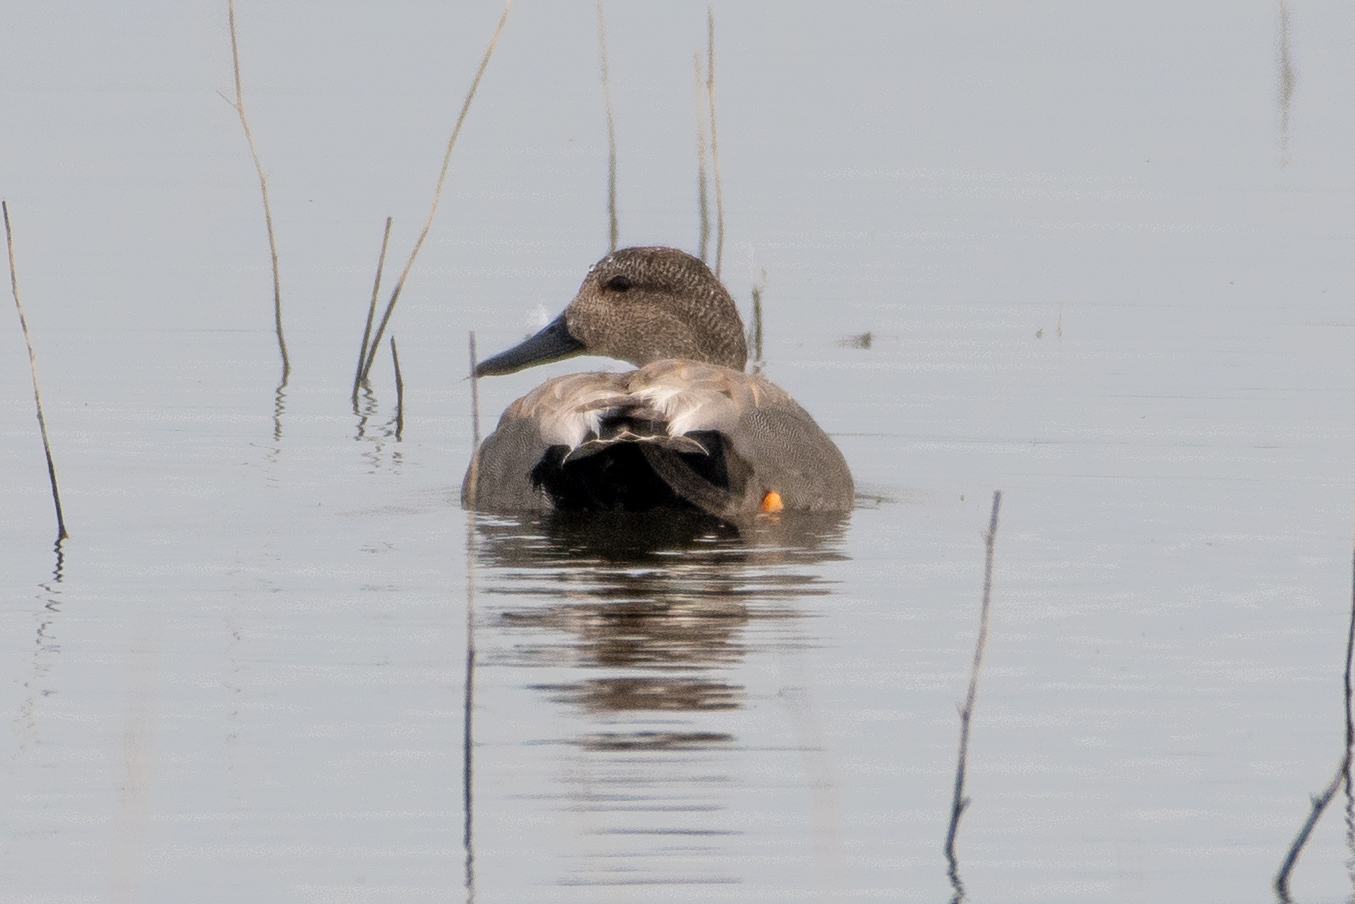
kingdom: Animalia
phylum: Chordata
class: Aves
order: Anseriformes
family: Anatidae
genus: Mareca
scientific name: Mareca strepera
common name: Gadwall
